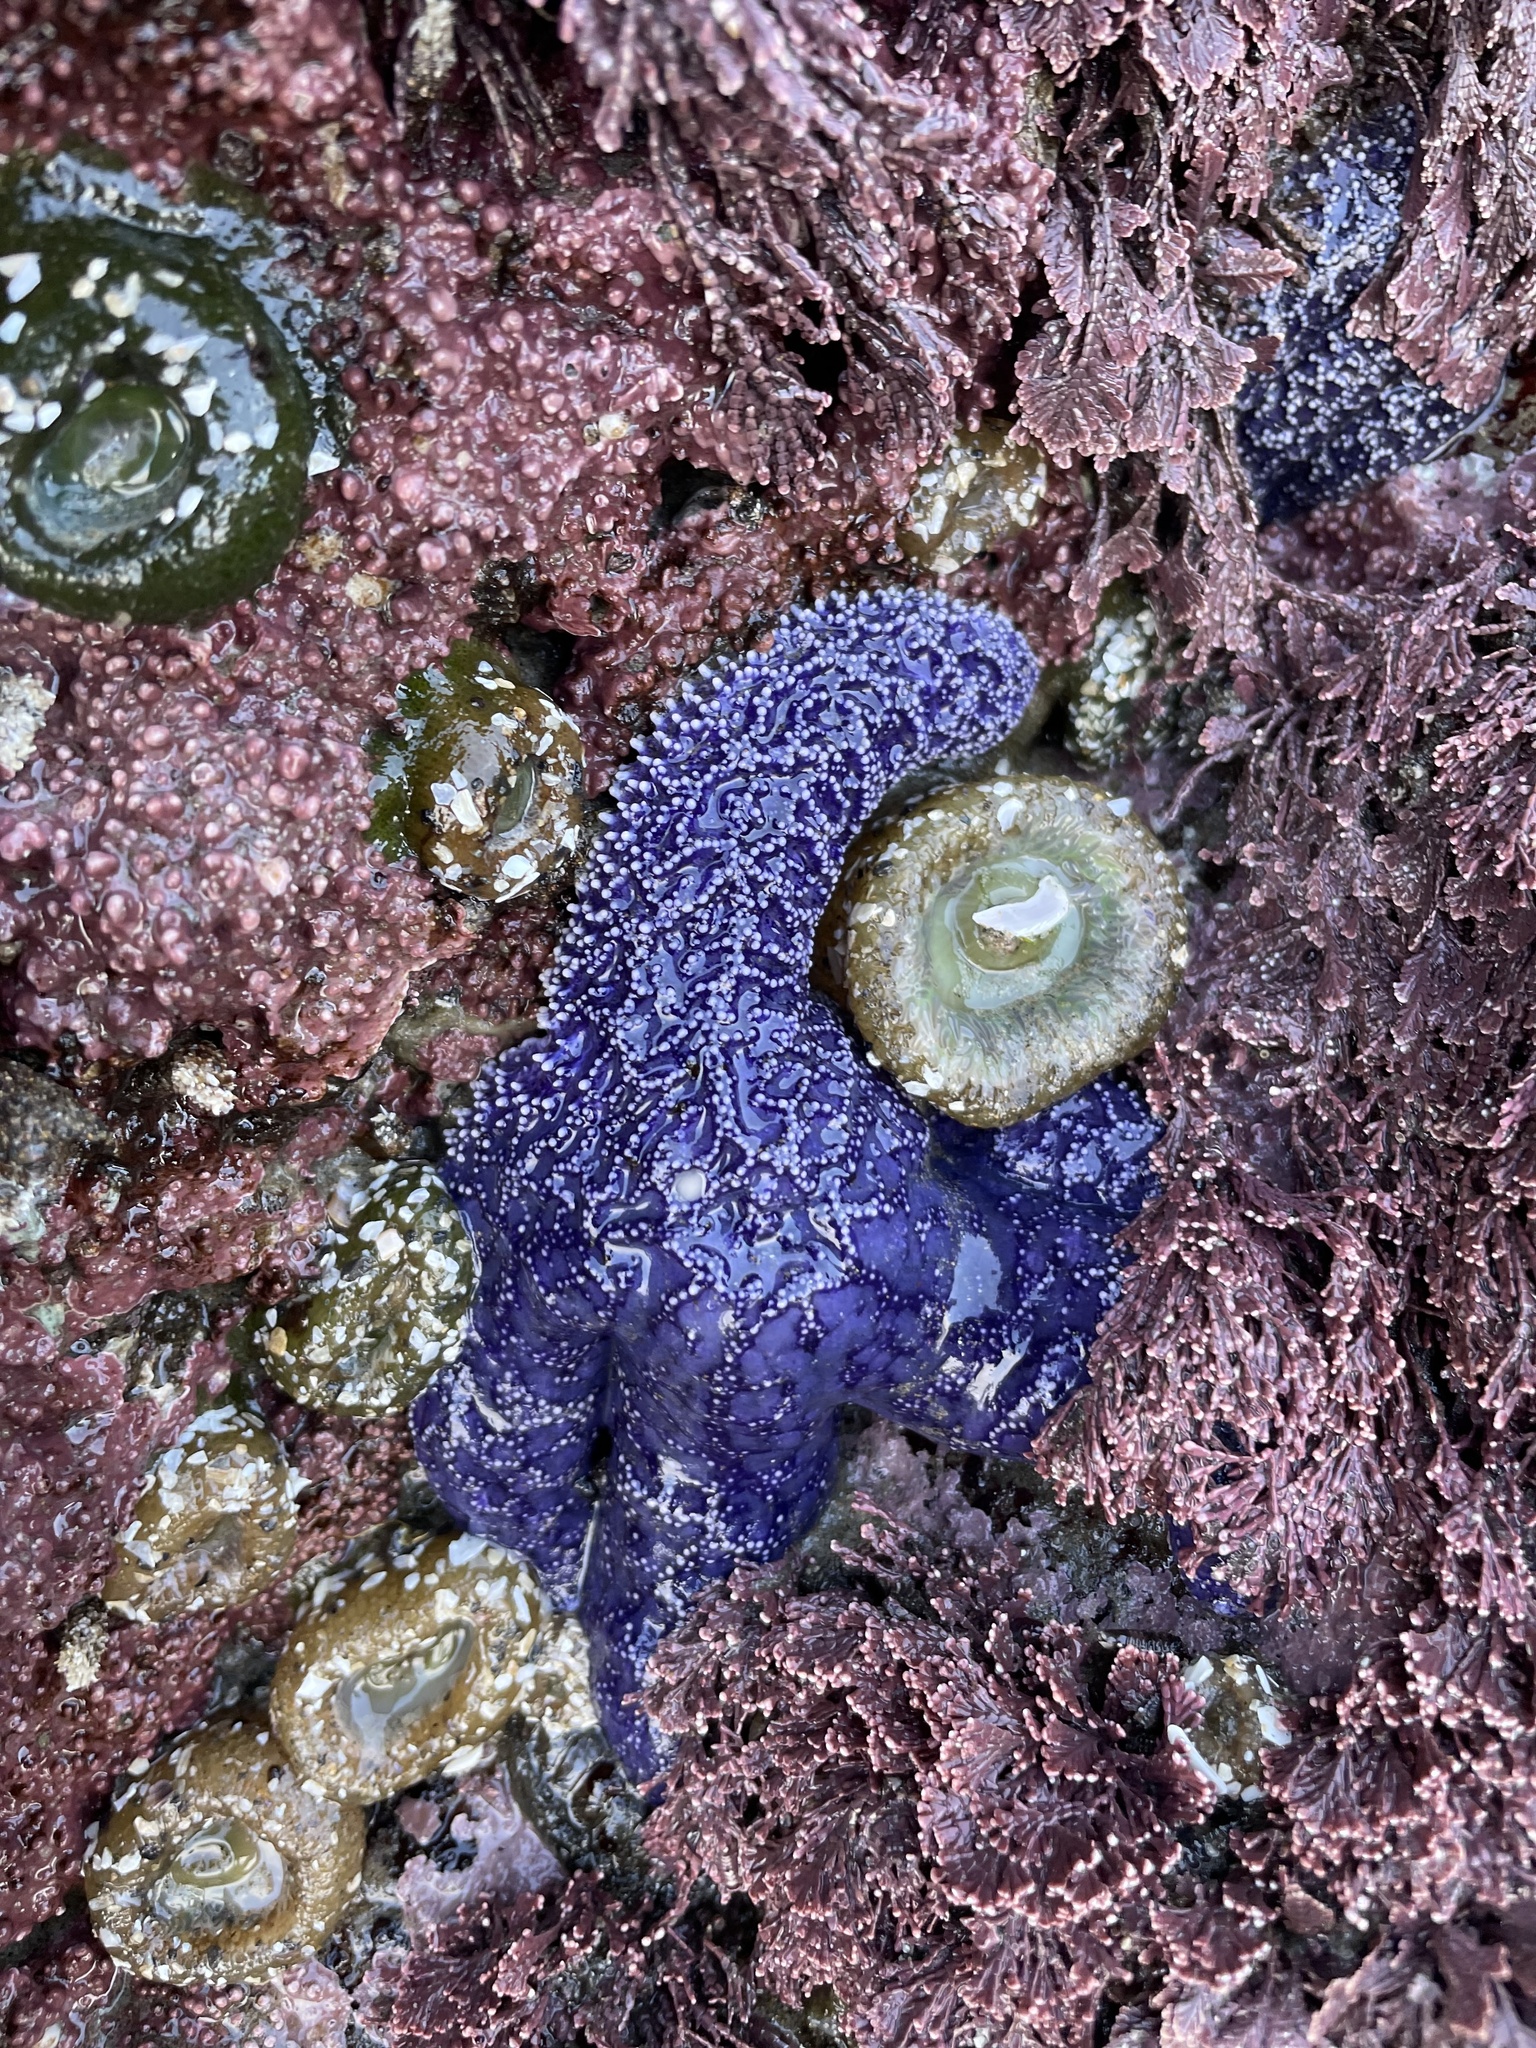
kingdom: Animalia
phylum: Echinodermata
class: Asteroidea
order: Forcipulatida
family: Asteriidae
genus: Pisaster
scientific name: Pisaster ochraceus
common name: Ochre stars
